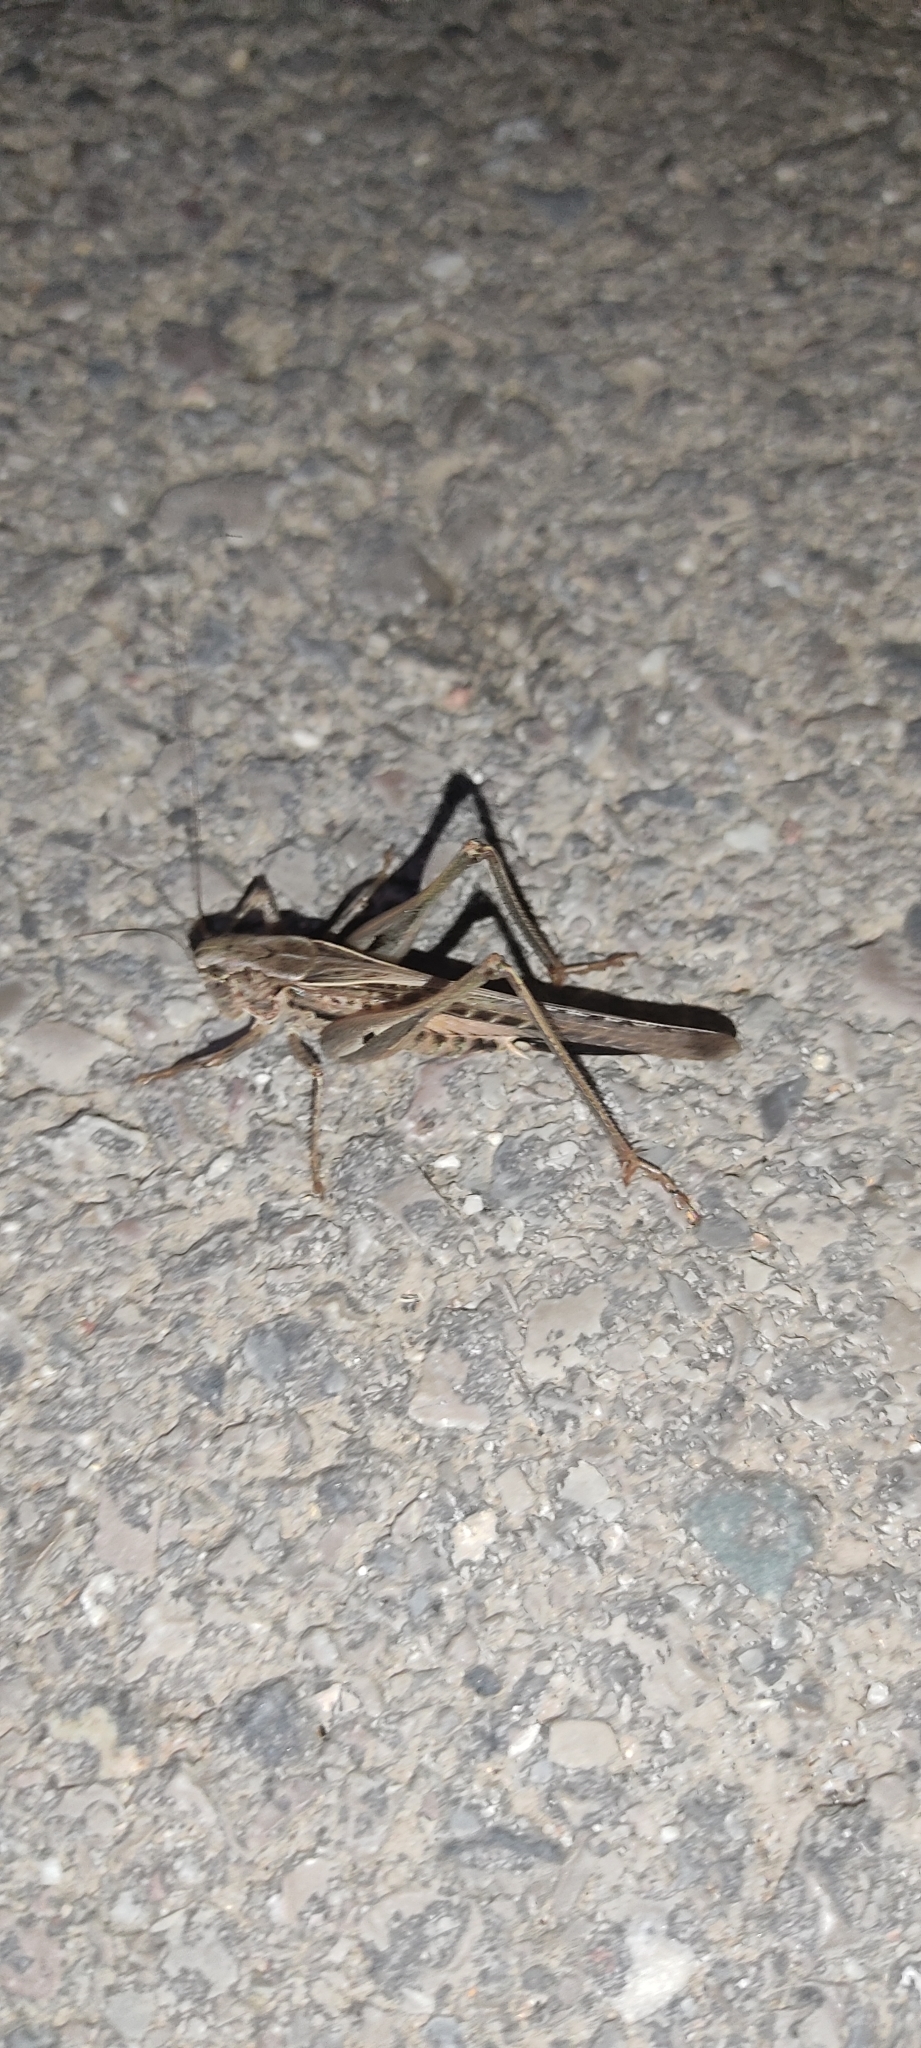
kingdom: Animalia
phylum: Arthropoda
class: Insecta
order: Orthoptera
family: Tettigoniidae
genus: Platycleis
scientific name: Platycleis affinis
